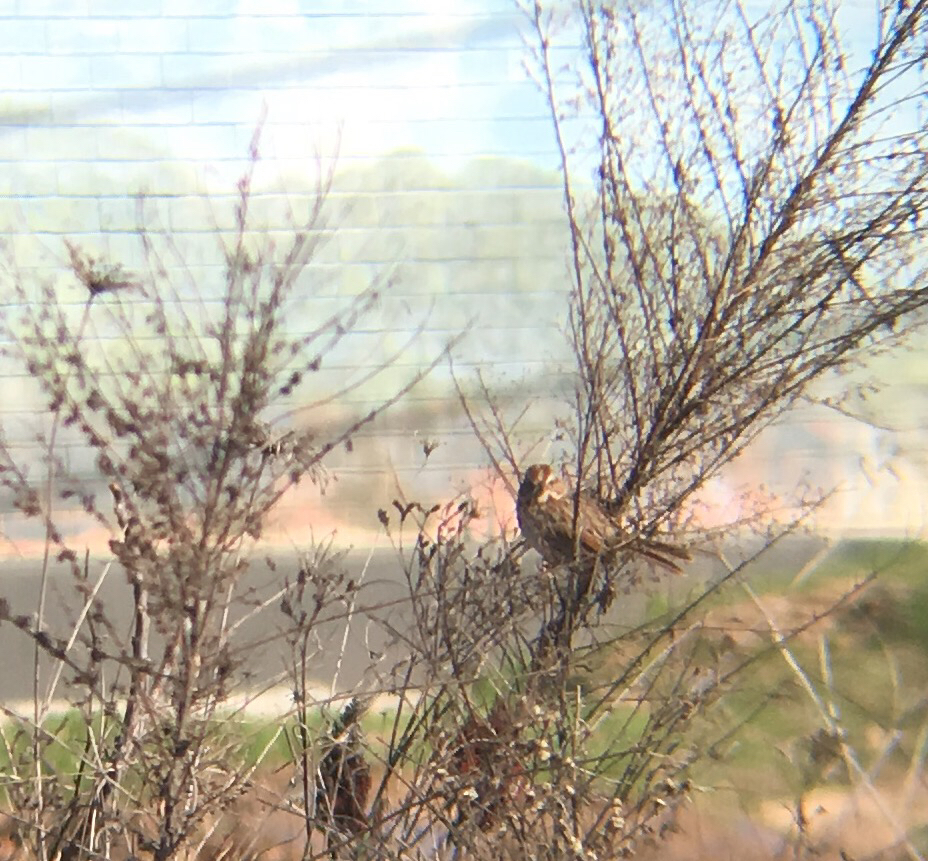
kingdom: Animalia
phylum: Chordata
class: Aves
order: Passeriformes
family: Passerellidae
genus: Melospiza
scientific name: Melospiza melodia
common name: Song sparrow
